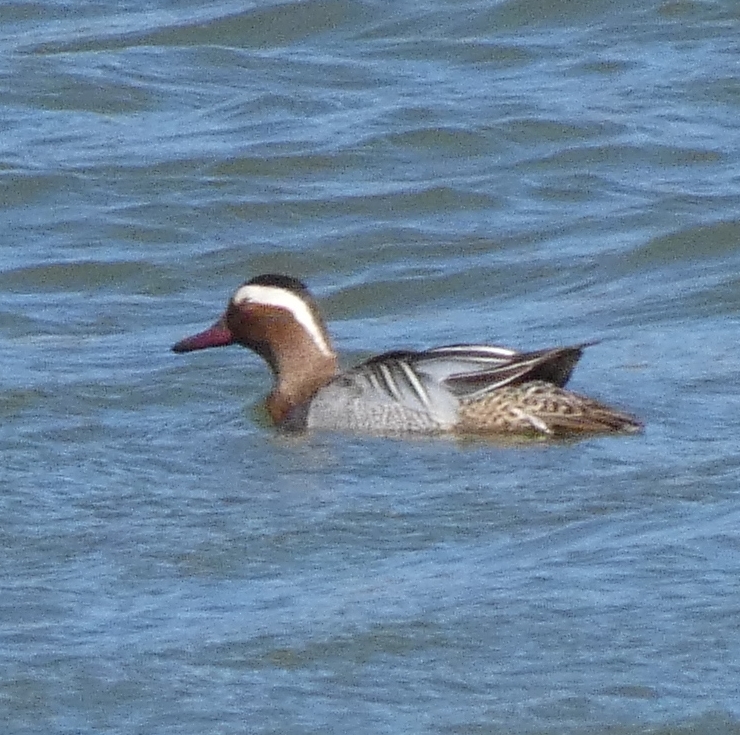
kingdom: Animalia
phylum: Chordata
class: Aves
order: Anseriformes
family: Anatidae
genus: Spatula
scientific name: Spatula querquedula
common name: Garganey
